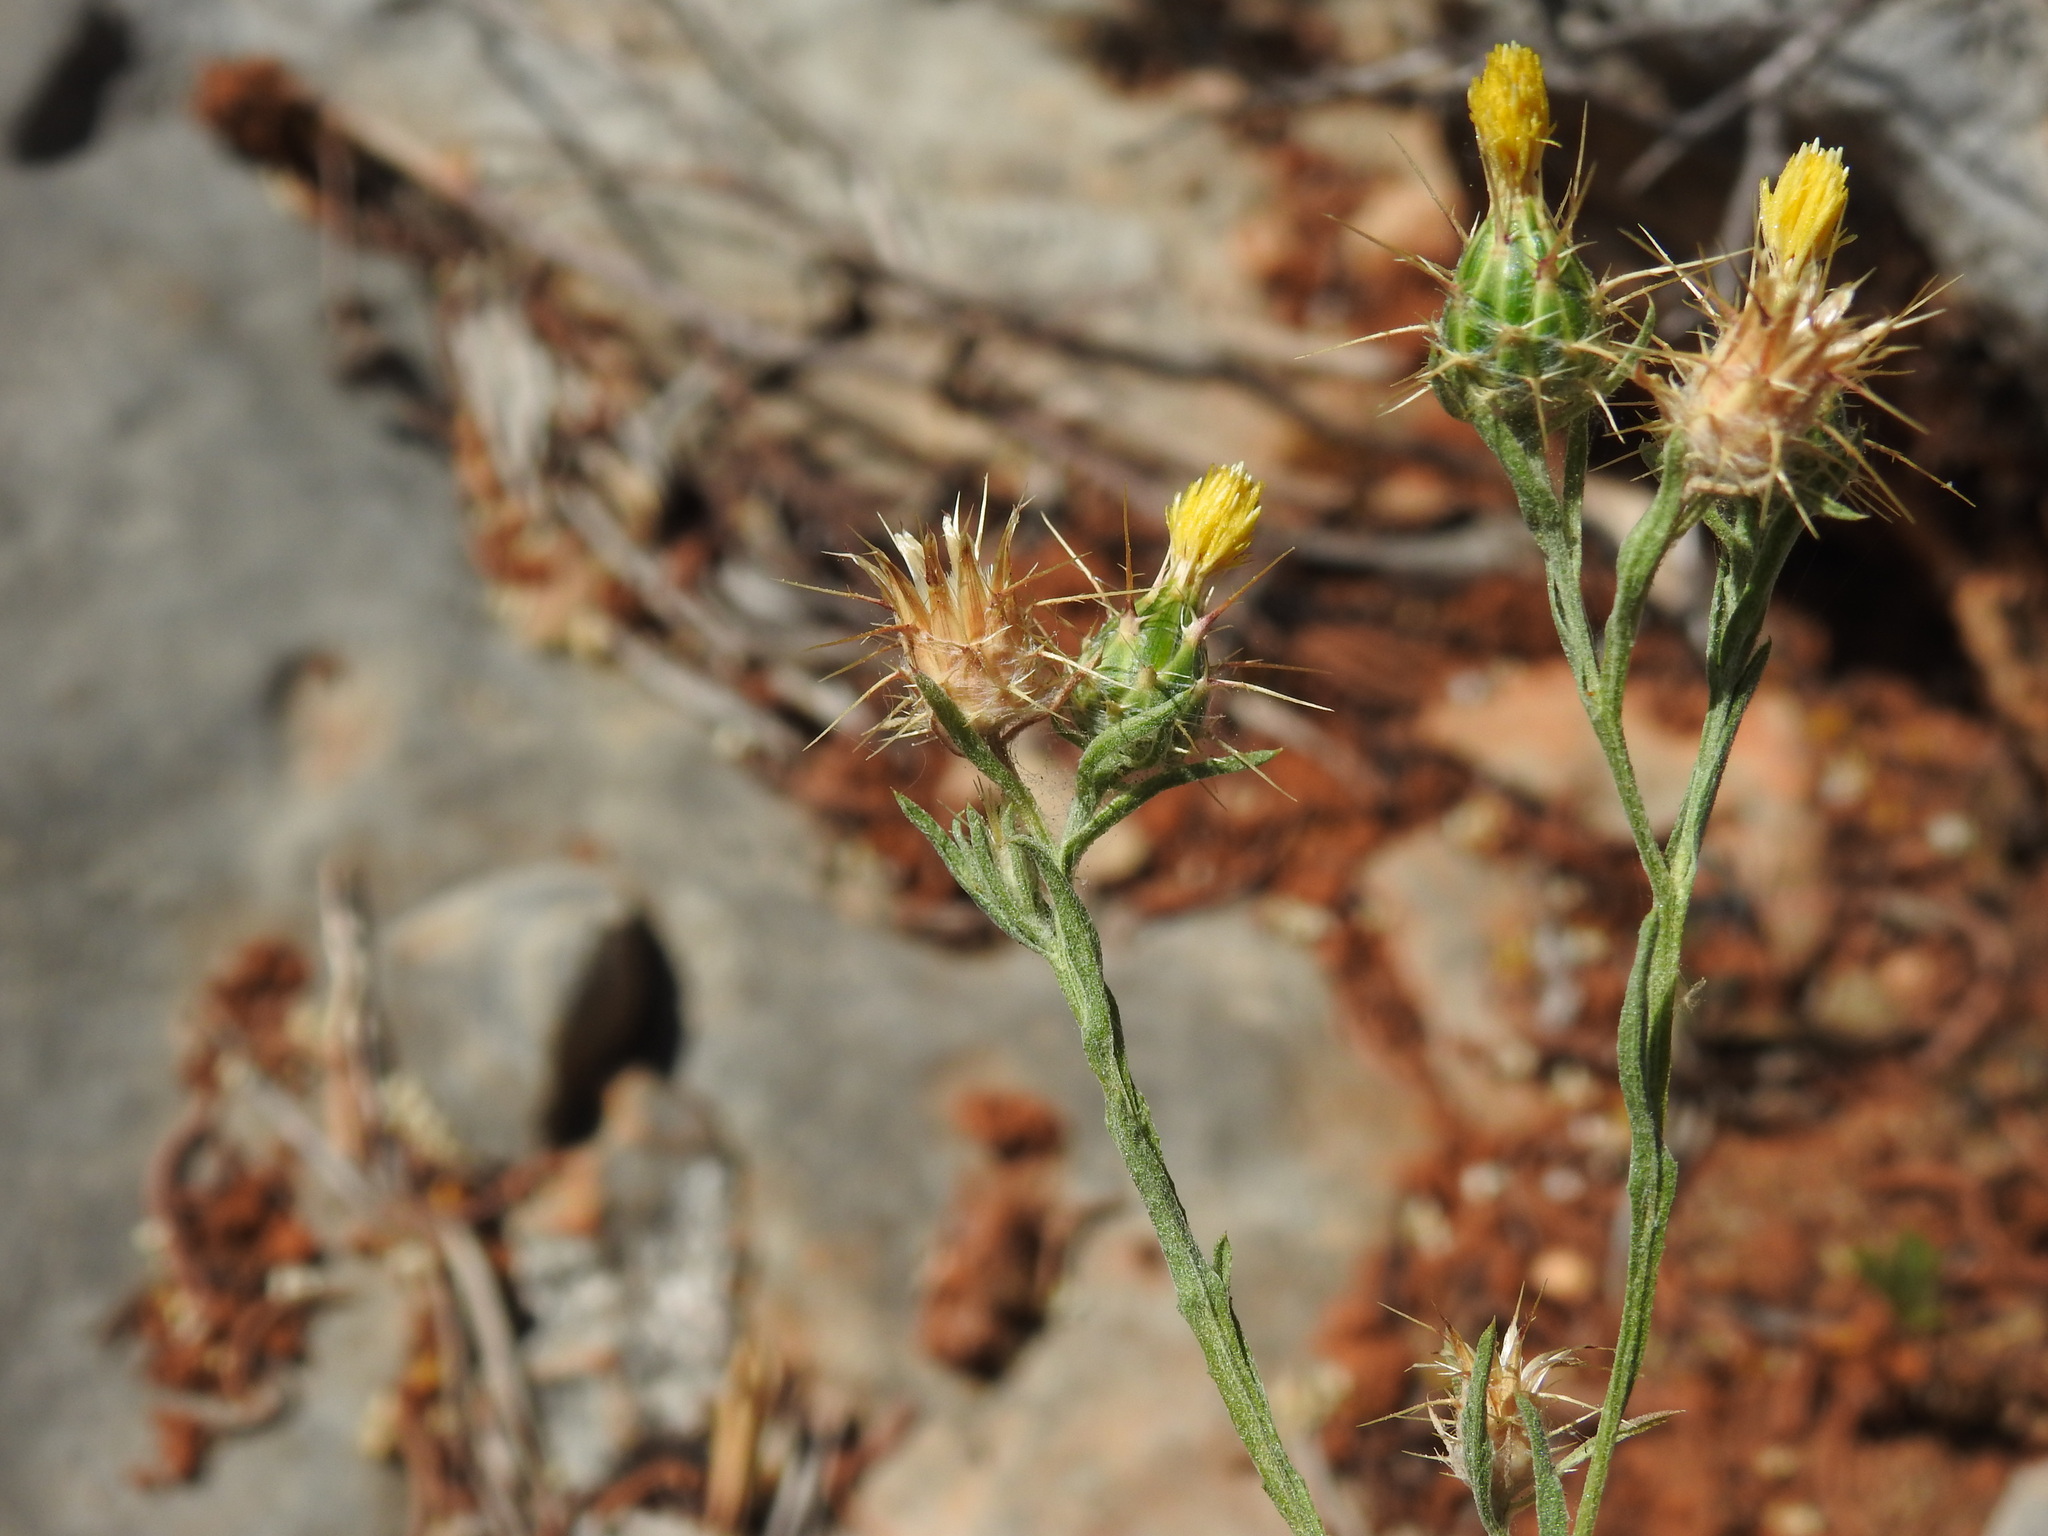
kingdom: Plantae
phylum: Tracheophyta
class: Magnoliopsida
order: Asterales
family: Asteraceae
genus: Centaurea
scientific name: Centaurea melitensis
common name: Maltese star-thistle
